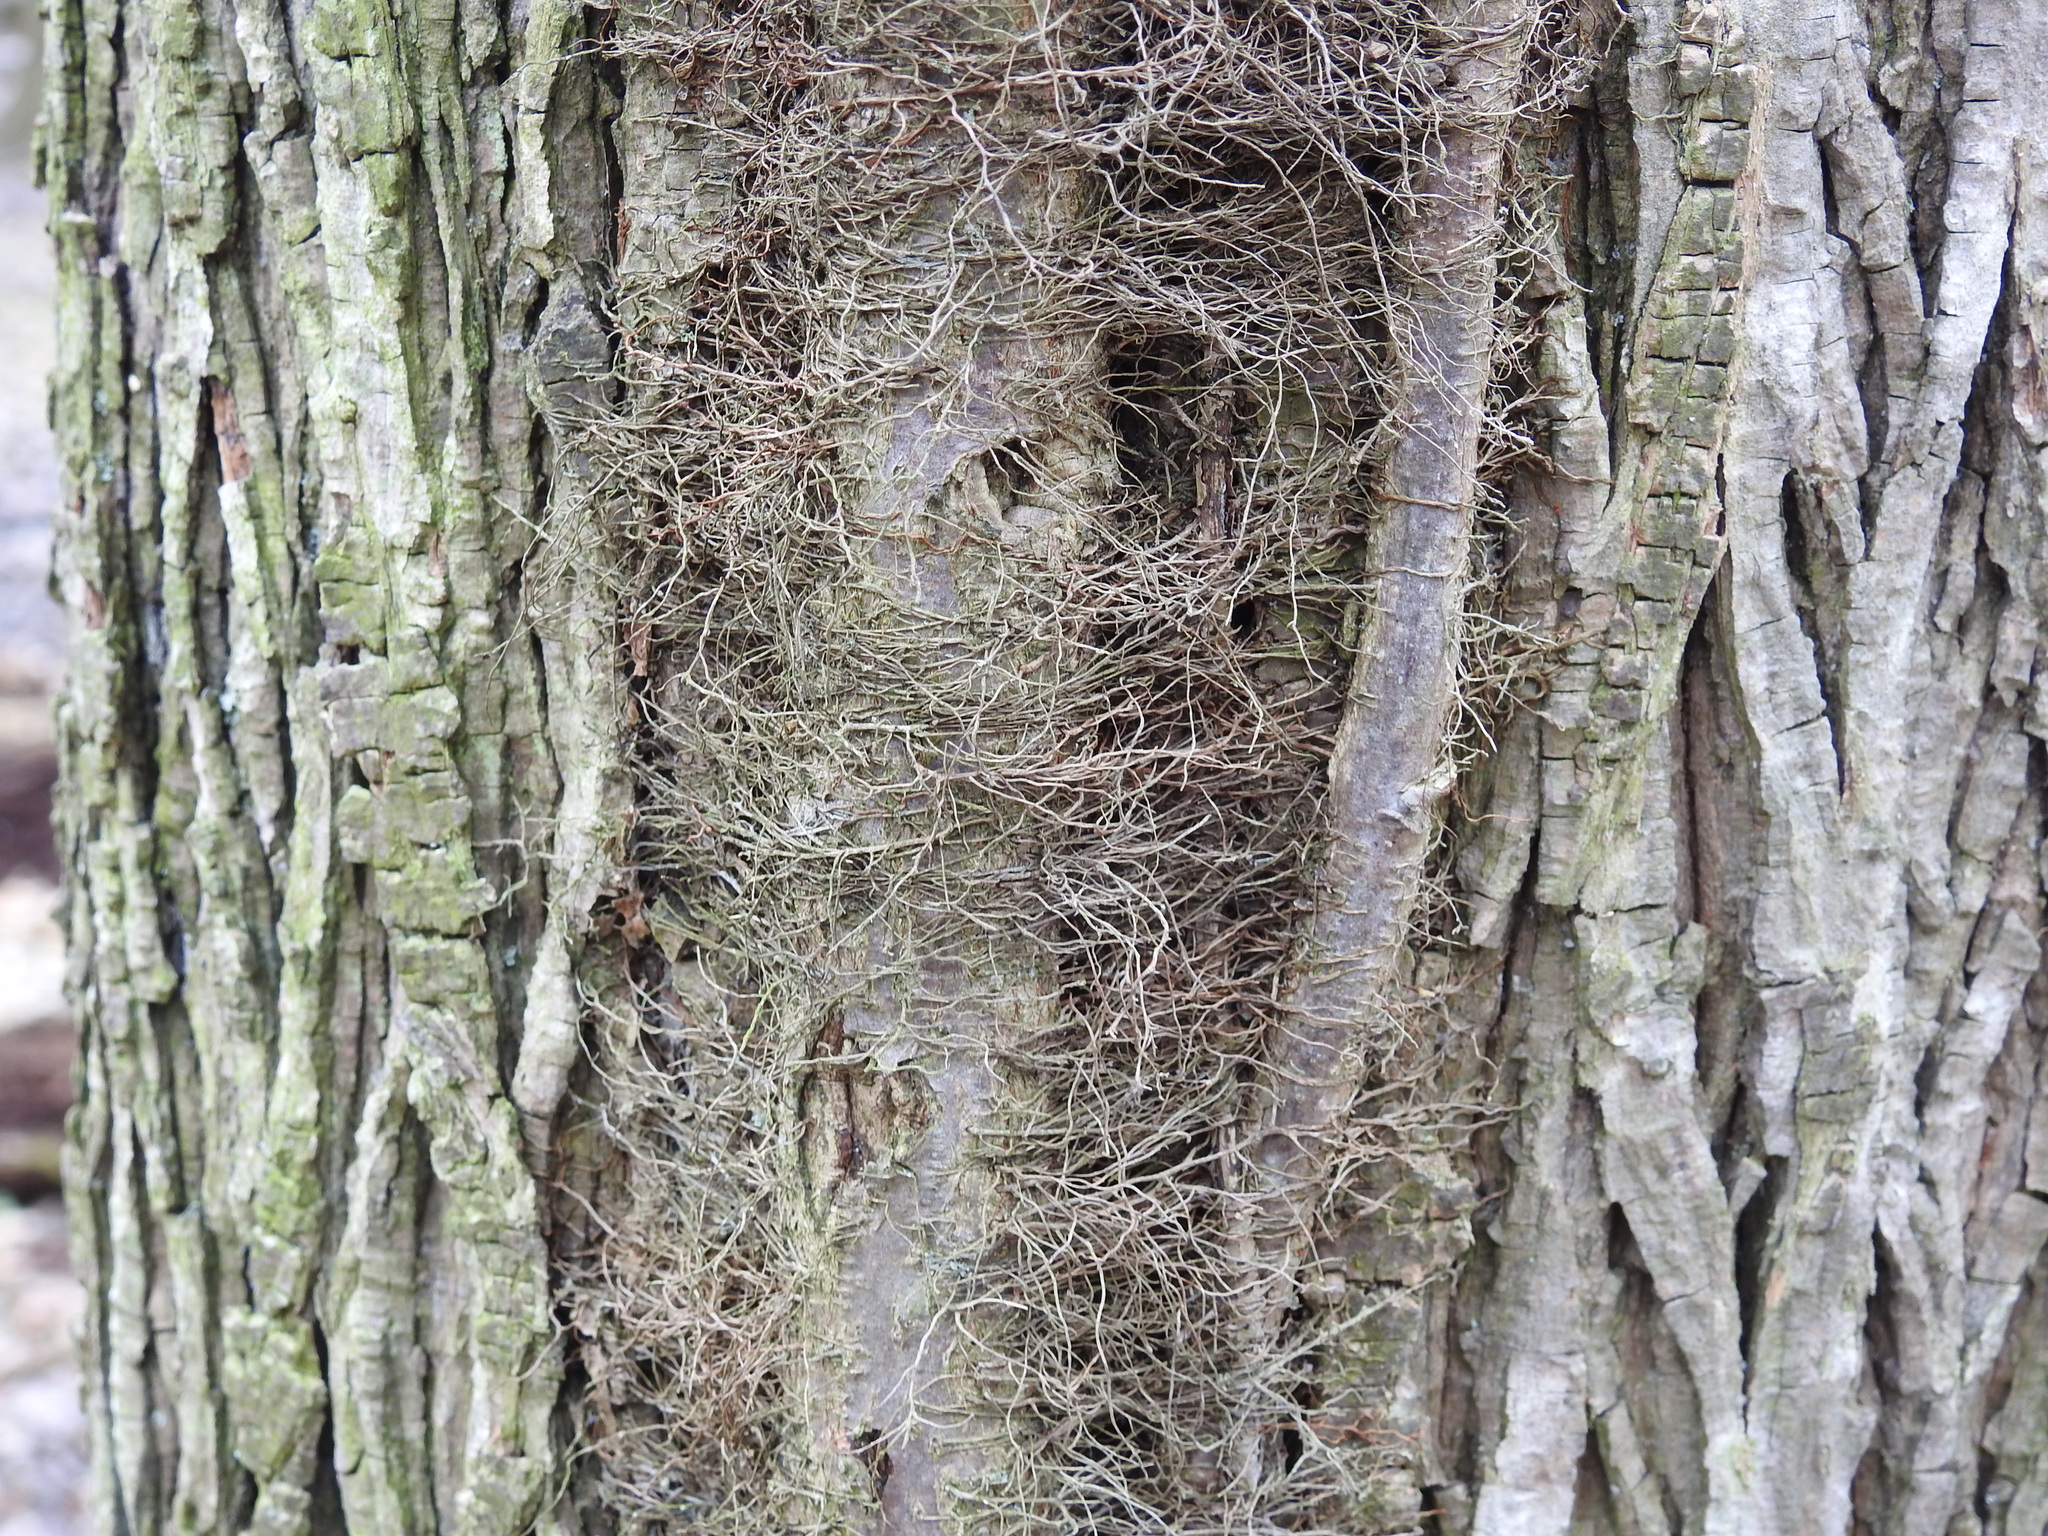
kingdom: Plantae
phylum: Tracheophyta
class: Magnoliopsida
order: Sapindales
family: Anacardiaceae
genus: Toxicodendron
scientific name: Toxicodendron radicans
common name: Poison ivy
